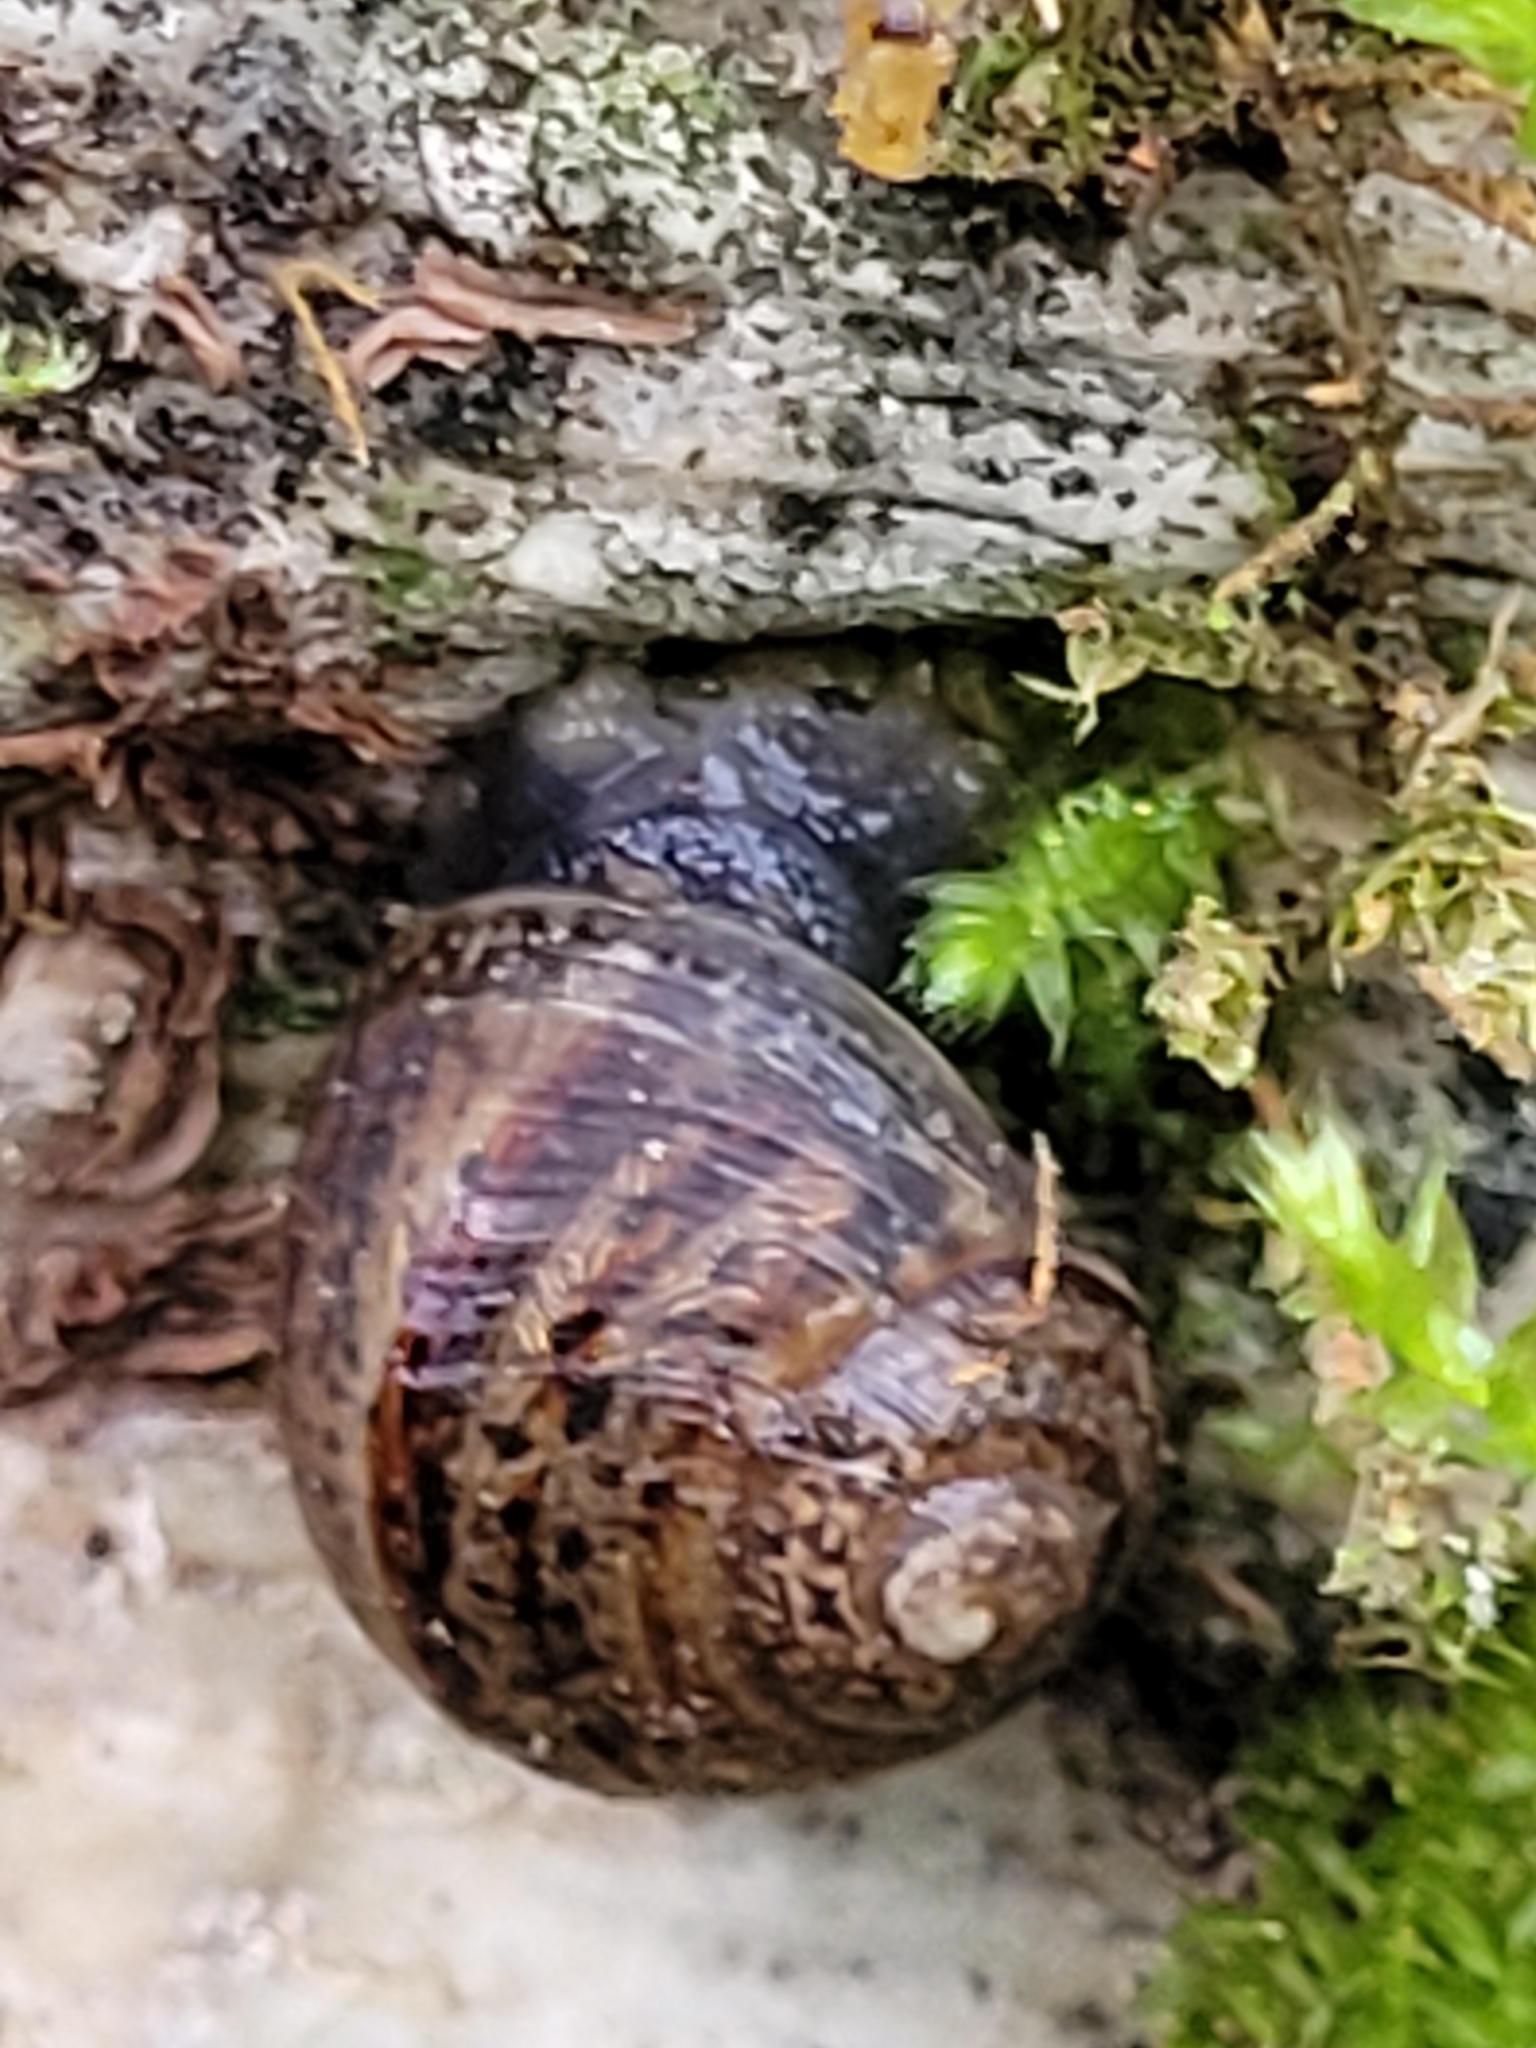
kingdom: Animalia
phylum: Mollusca
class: Gastropoda
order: Stylommatophora
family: Helicidae
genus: Cornu
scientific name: Cornu aspersum
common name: Brown garden snail
